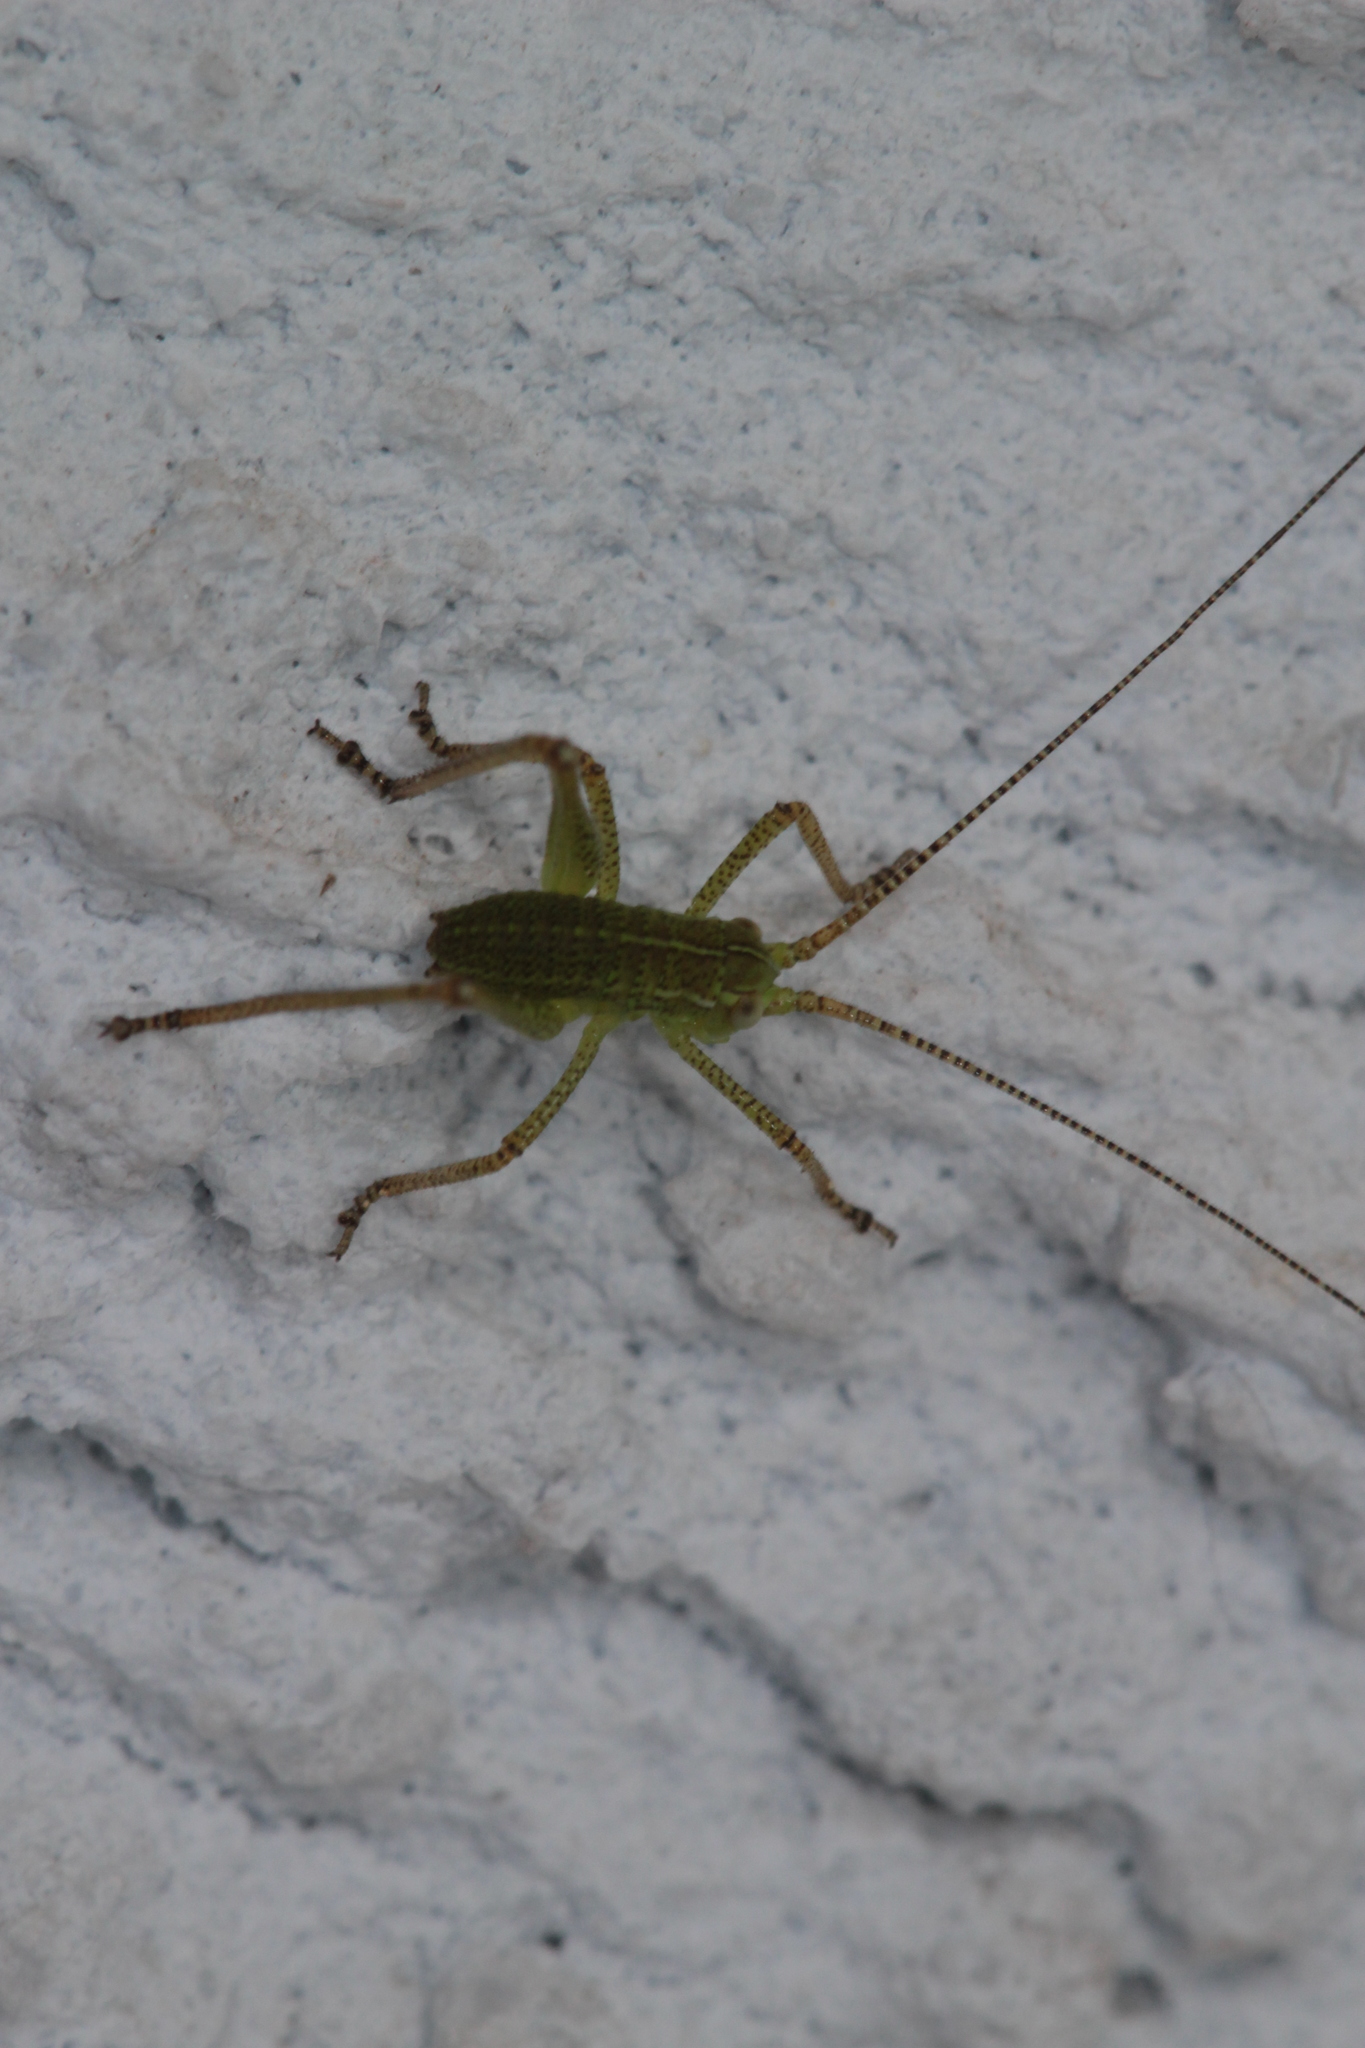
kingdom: Animalia
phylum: Arthropoda
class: Insecta
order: Orthoptera
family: Tettigoniidae
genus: Barbitistes
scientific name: Barbitistes serricauda
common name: Saw-tailed bush-cricket
